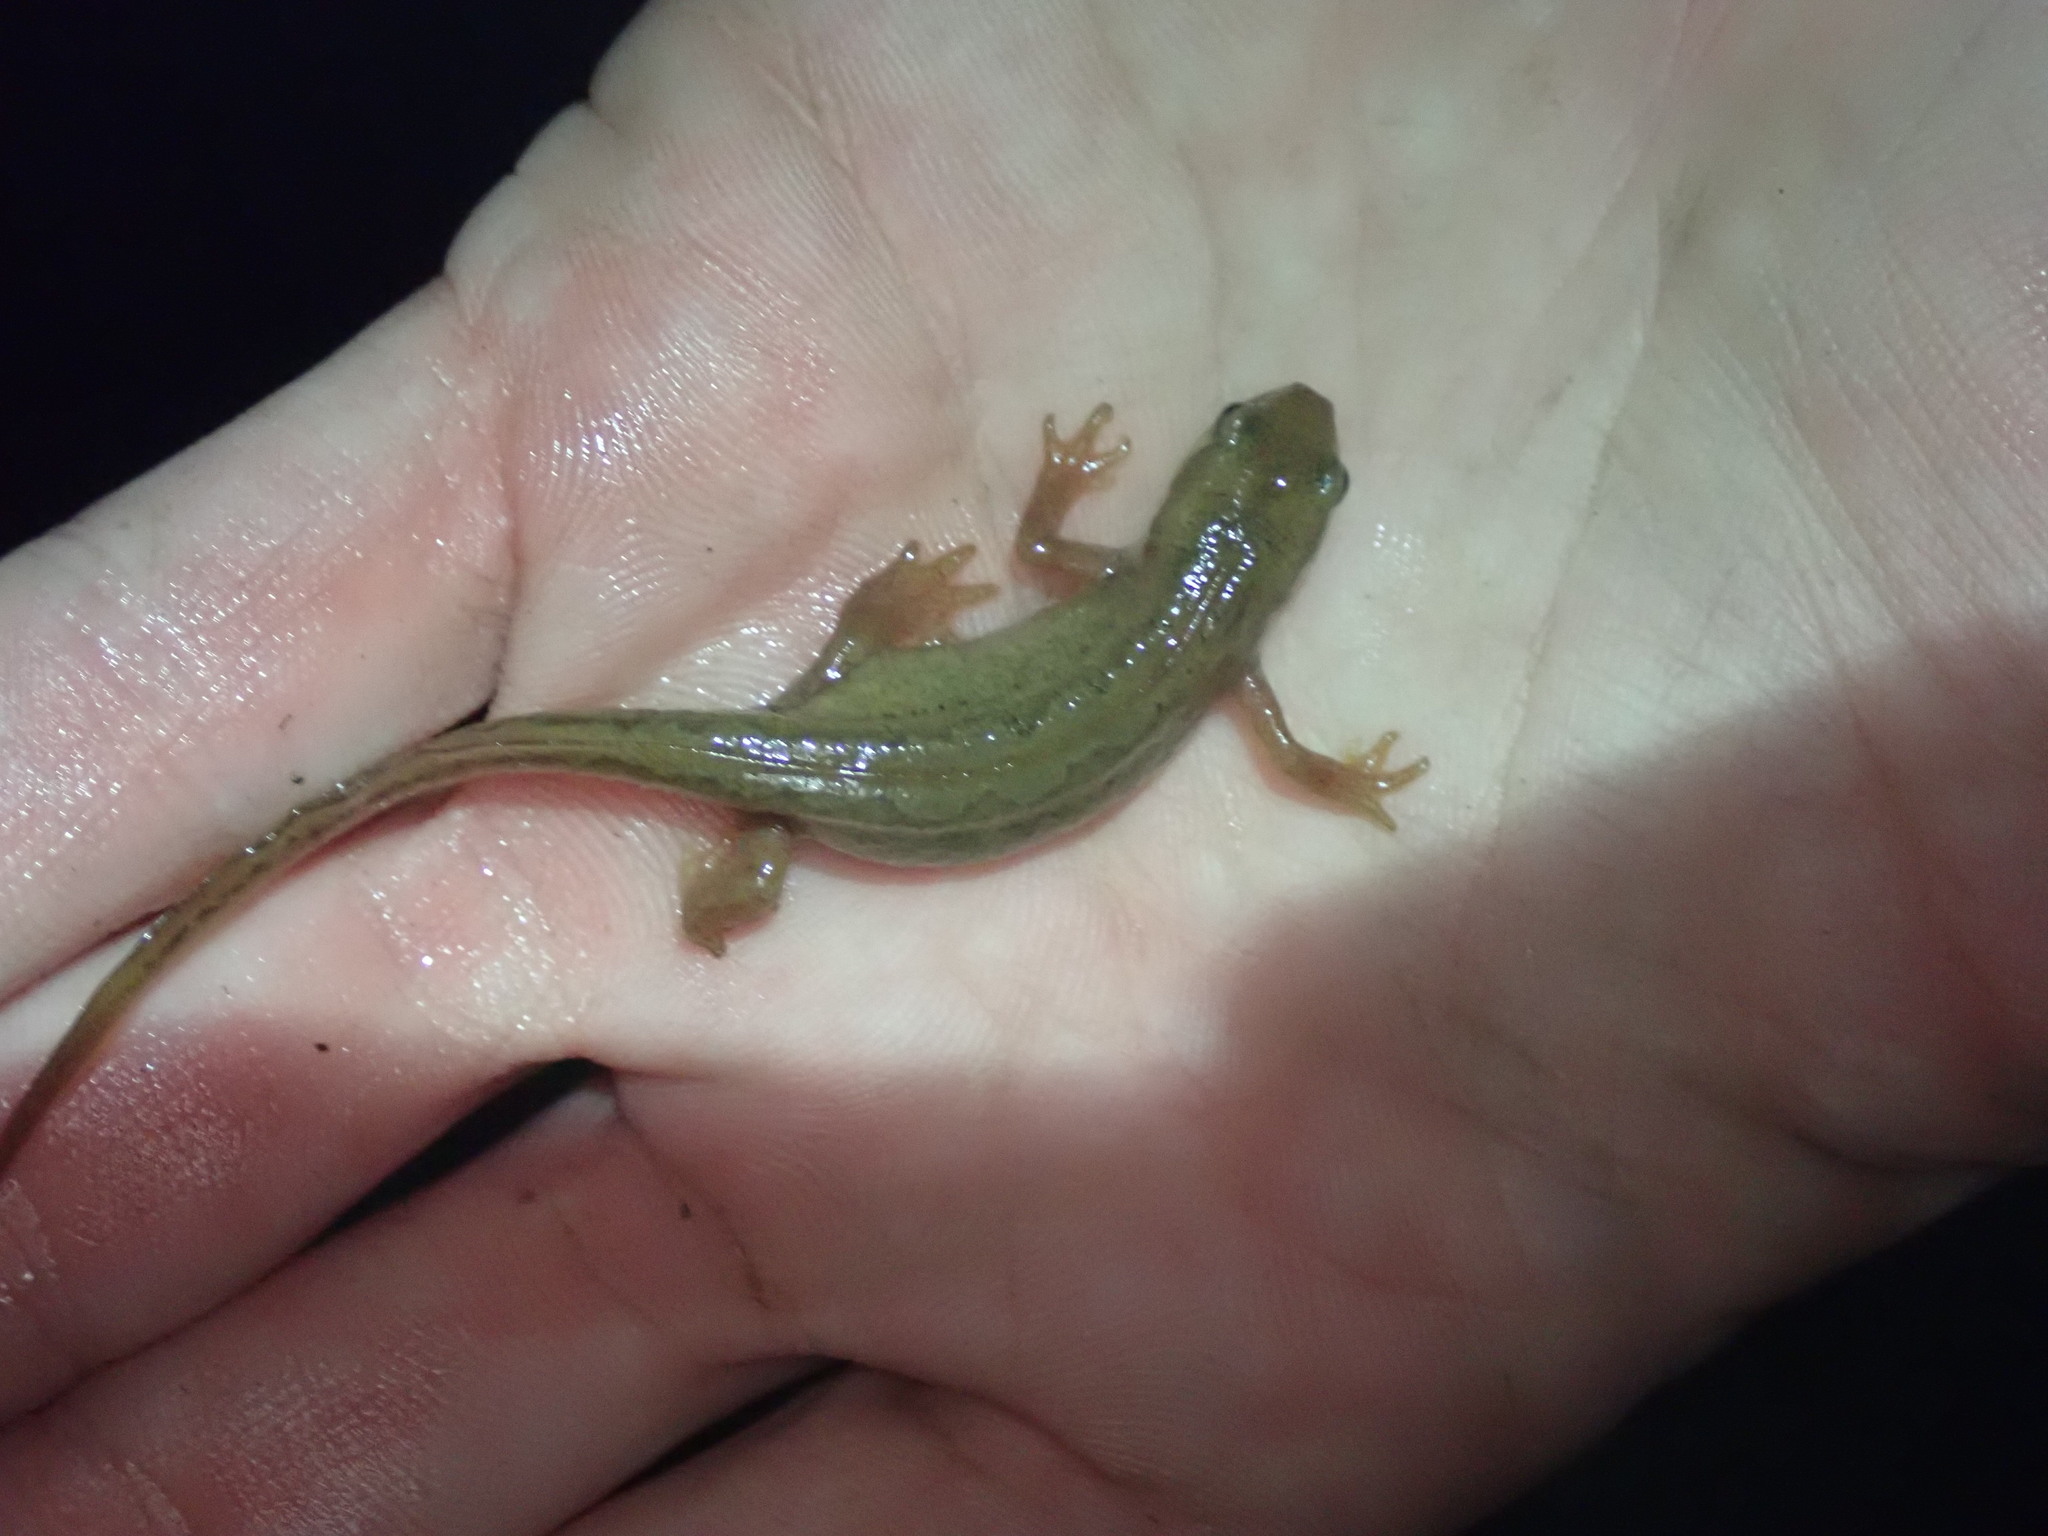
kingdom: Animalia
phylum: Chordata
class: Amphibia
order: Caudata
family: Salamandridae
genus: Lissotriton
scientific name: Lissotriton vulgaris
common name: Smooth newt
